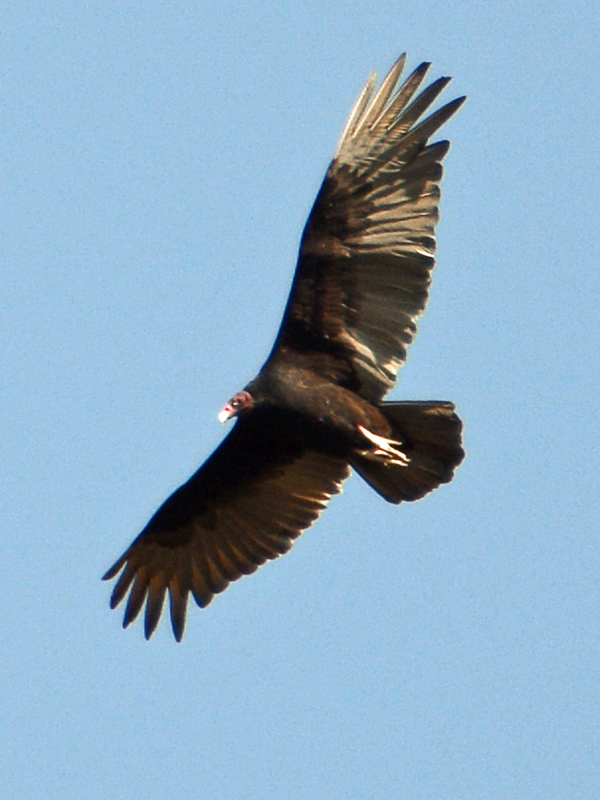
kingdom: Animalia
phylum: Chordata
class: Aves
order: Accipitriformes
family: Cathartidae
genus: Cathartes
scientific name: Cathartes aura
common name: Turkey vulture
